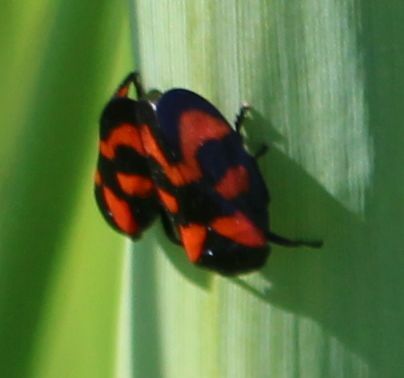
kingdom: Animalia
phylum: Arthropoda
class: Insecta
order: Hemiptera
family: Cercopidae
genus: Cercopis
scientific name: Cercopis vulnerata
